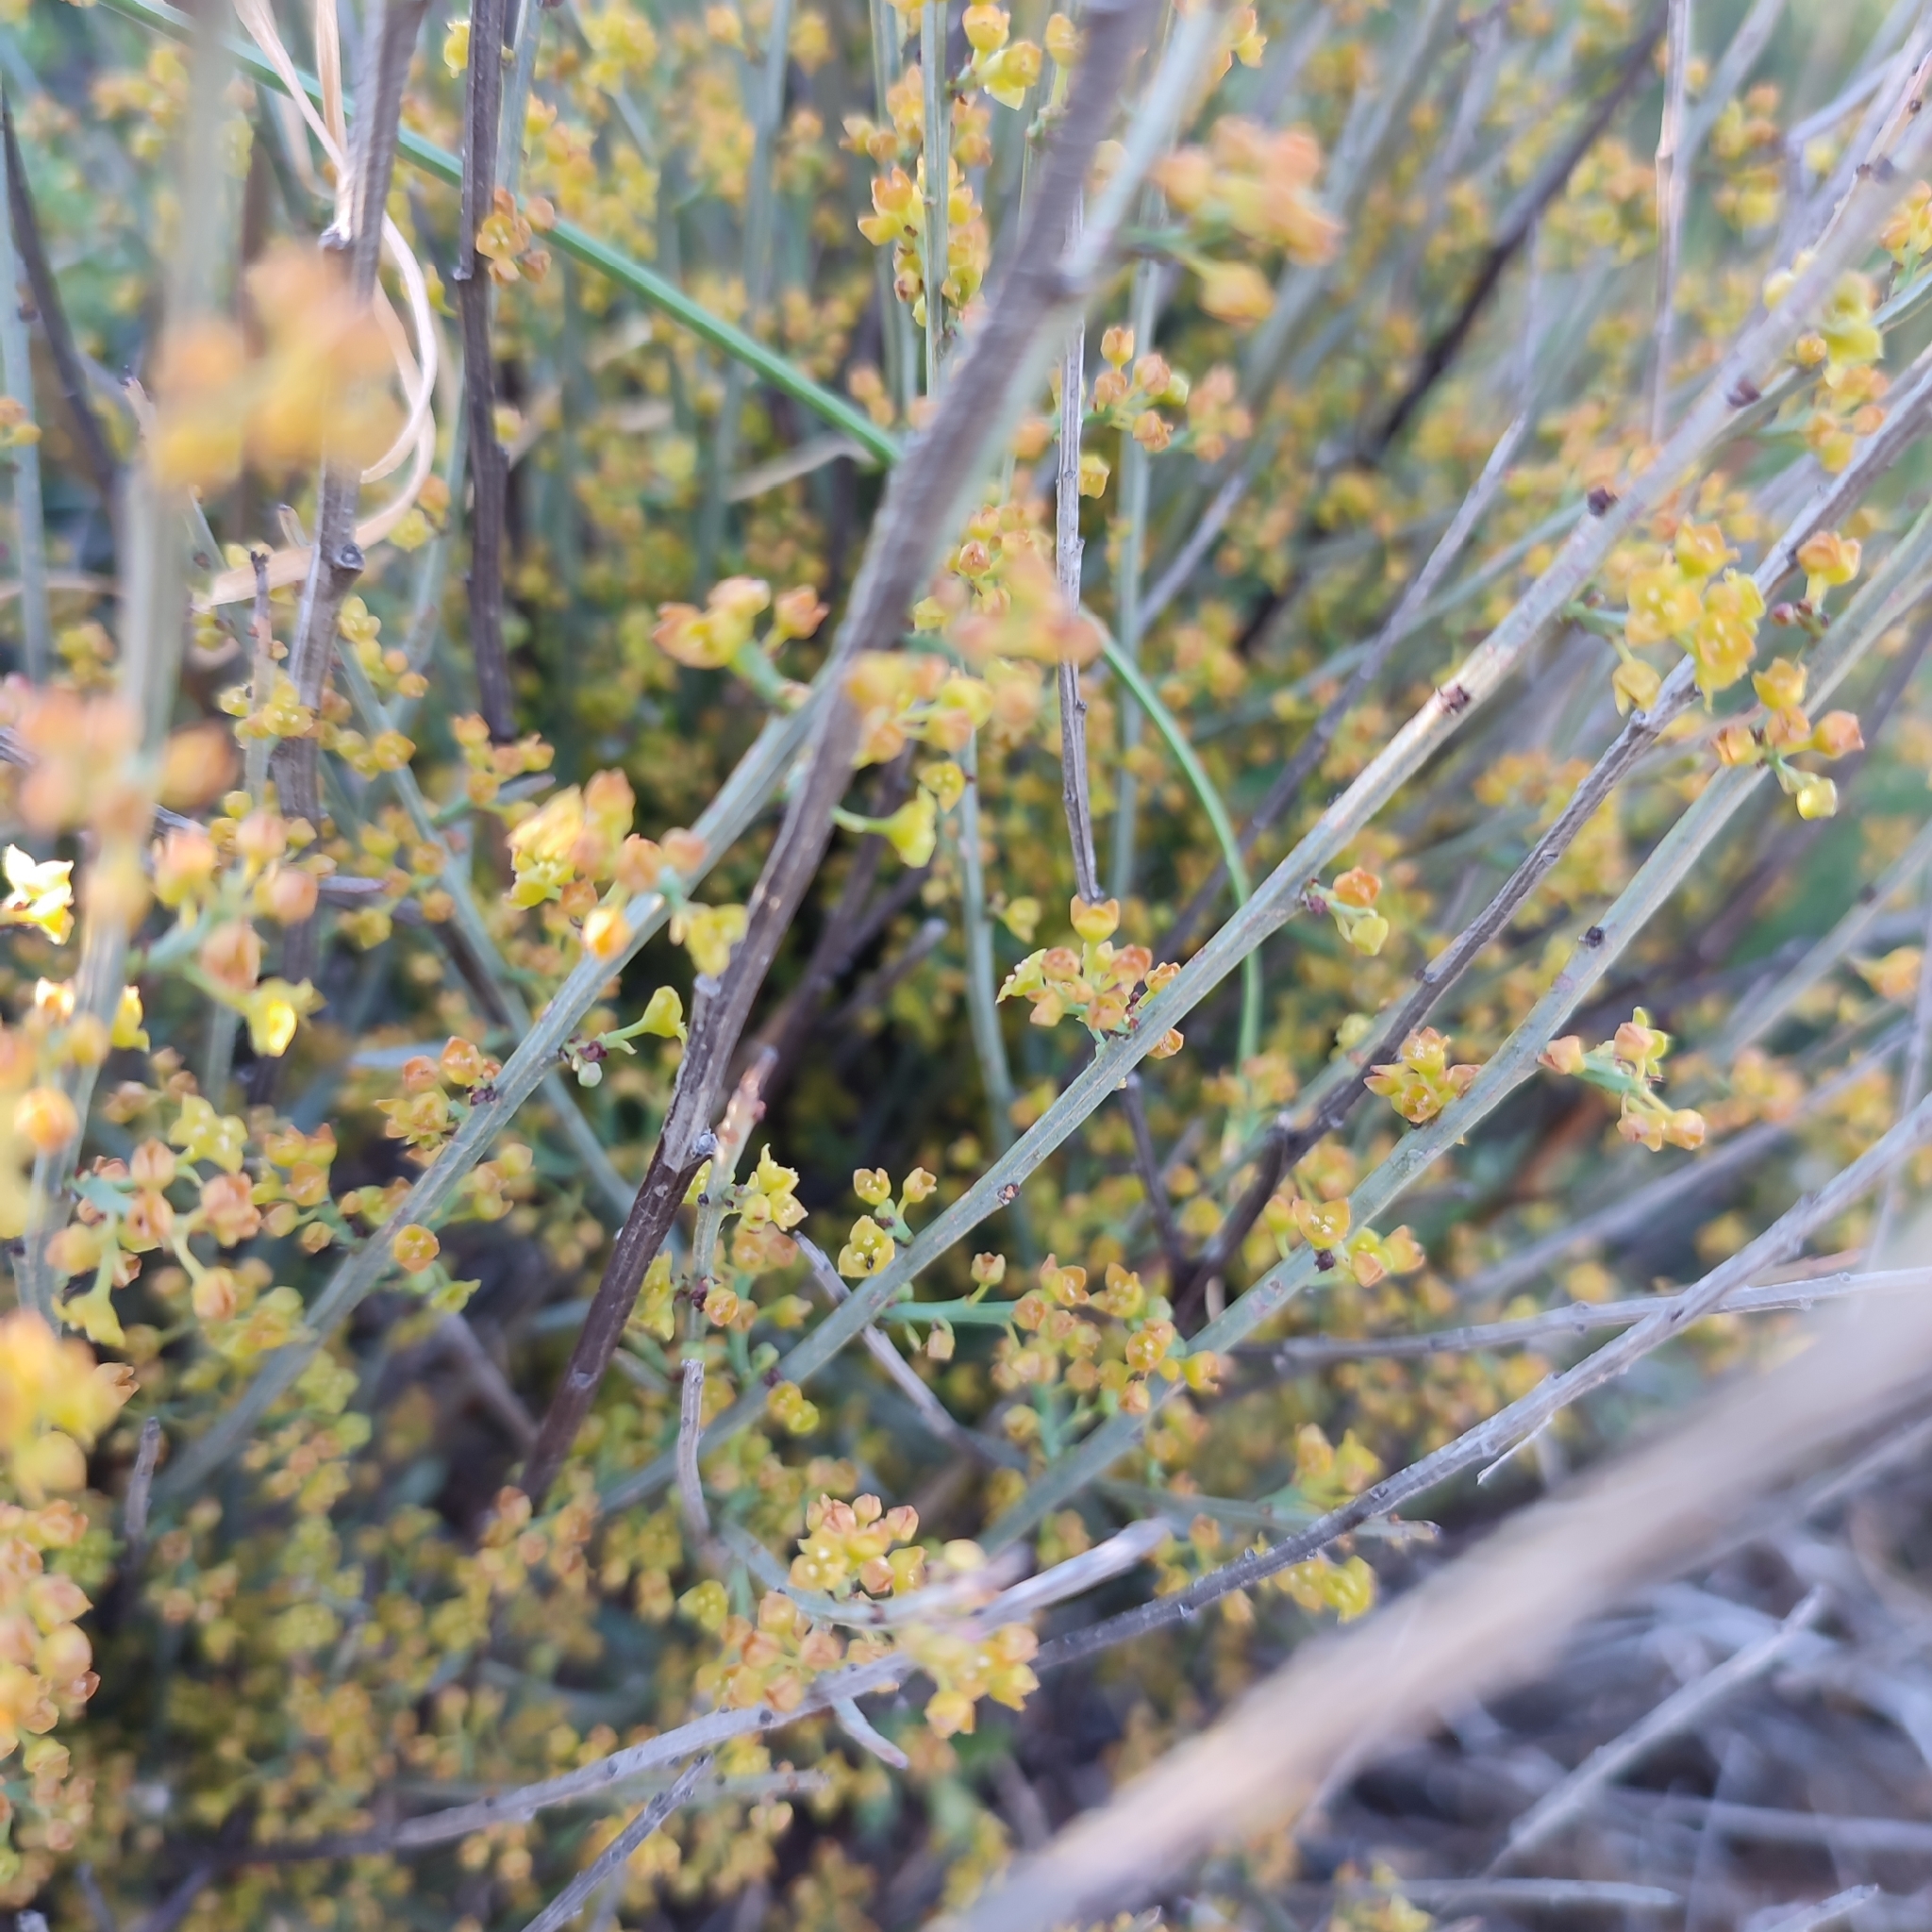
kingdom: Plantae
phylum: Tracheophyta
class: Magnoliopsida
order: Santalales
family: Santalaceae
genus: Osyris
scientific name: Osyris alba
